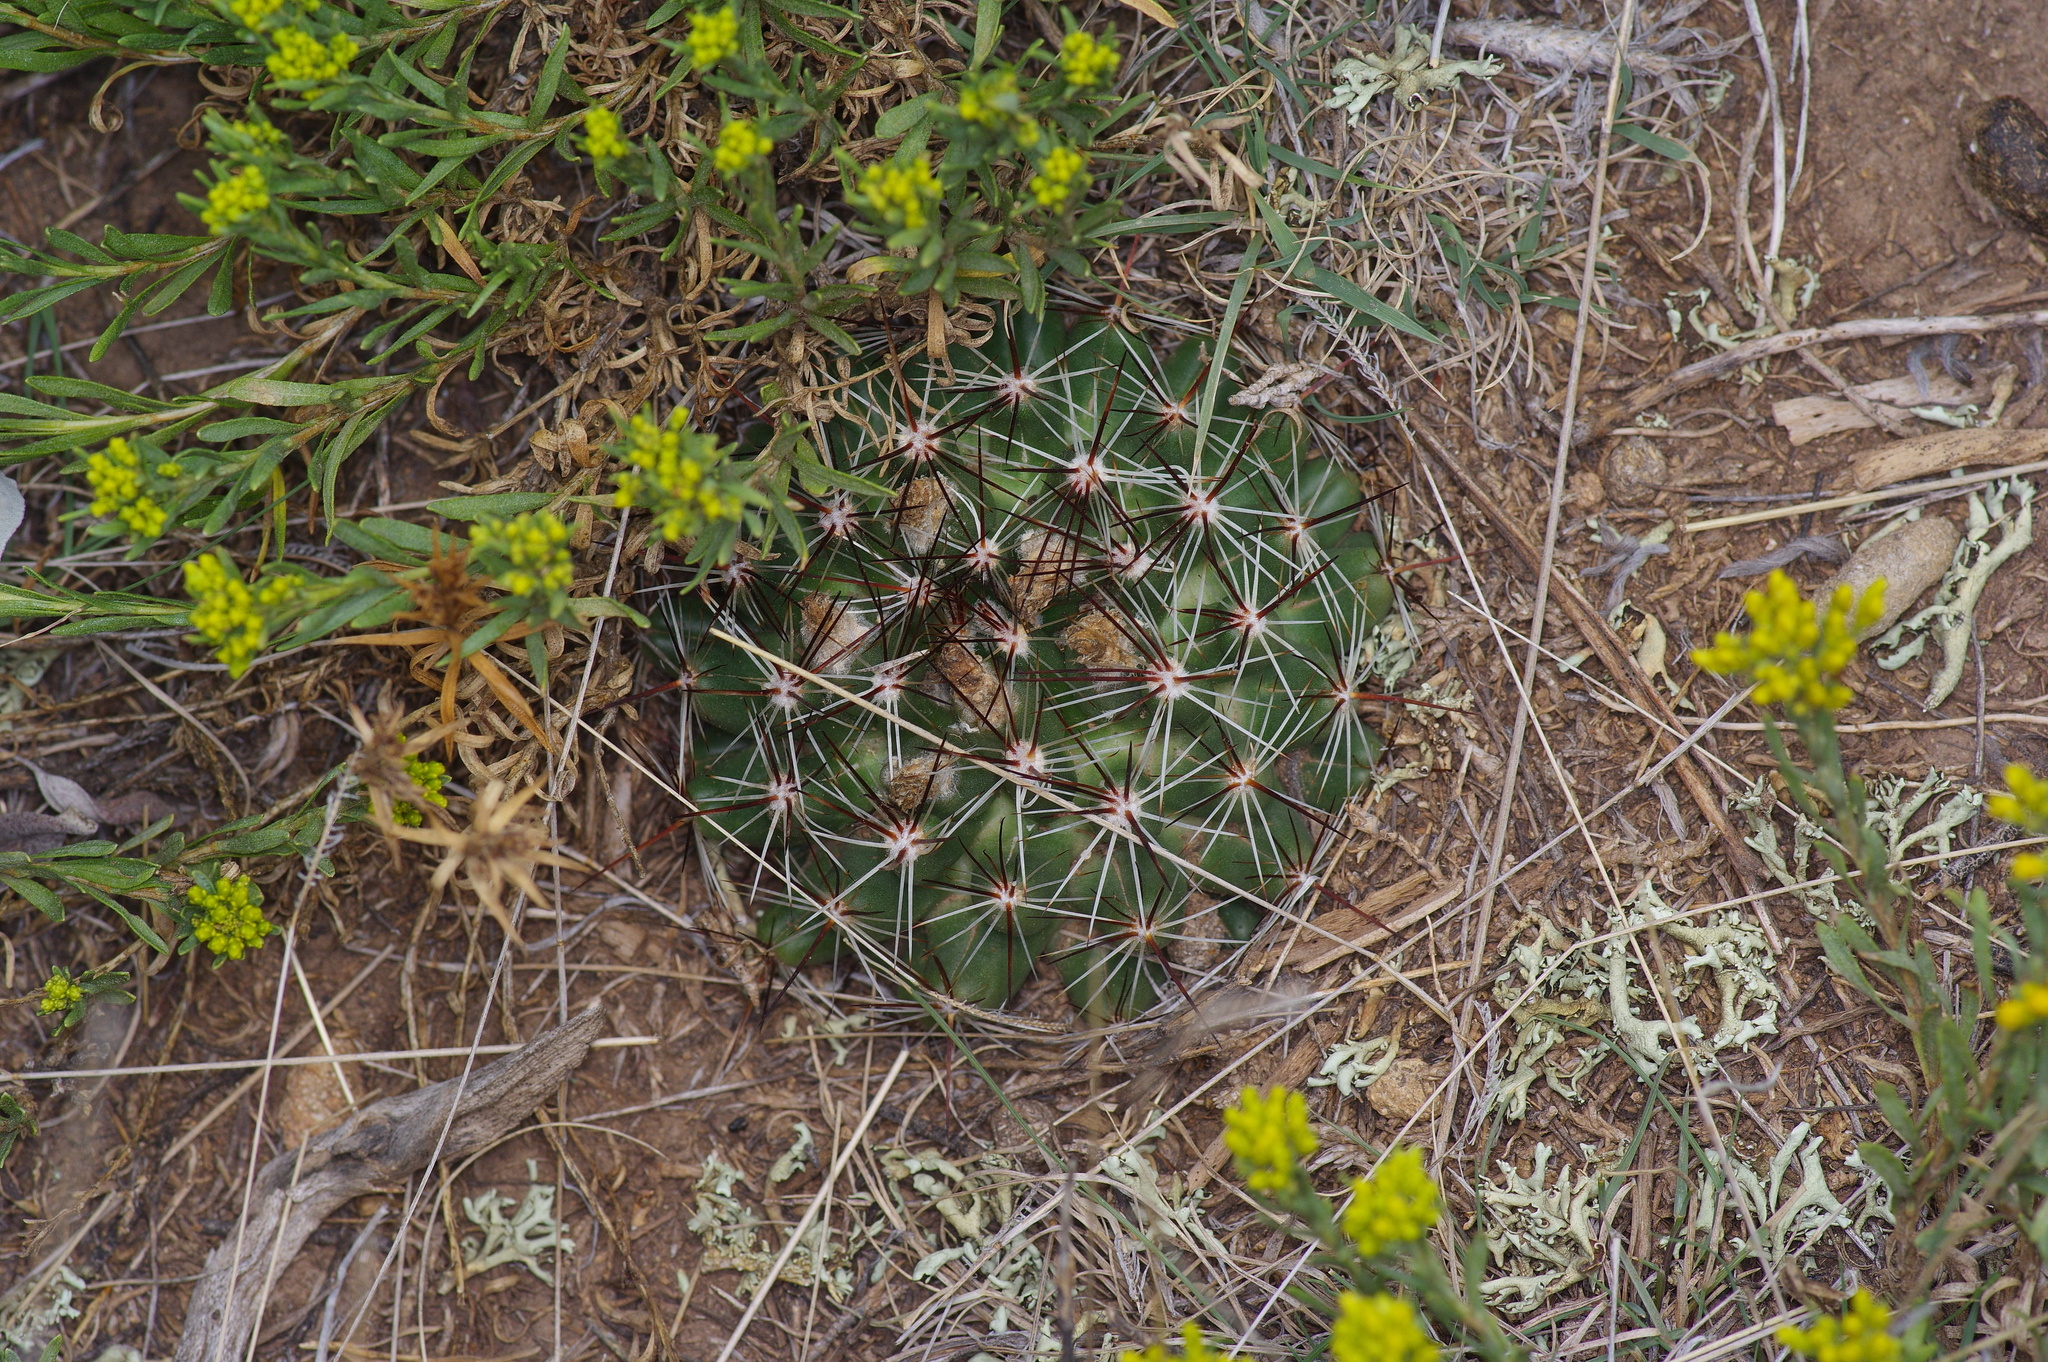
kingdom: Plantae
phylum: Tracheophyta
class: Magnoliopsida
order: Caryophyllales
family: Cactaceae
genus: Pelecyphora
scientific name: Pelecyphora vivipara
